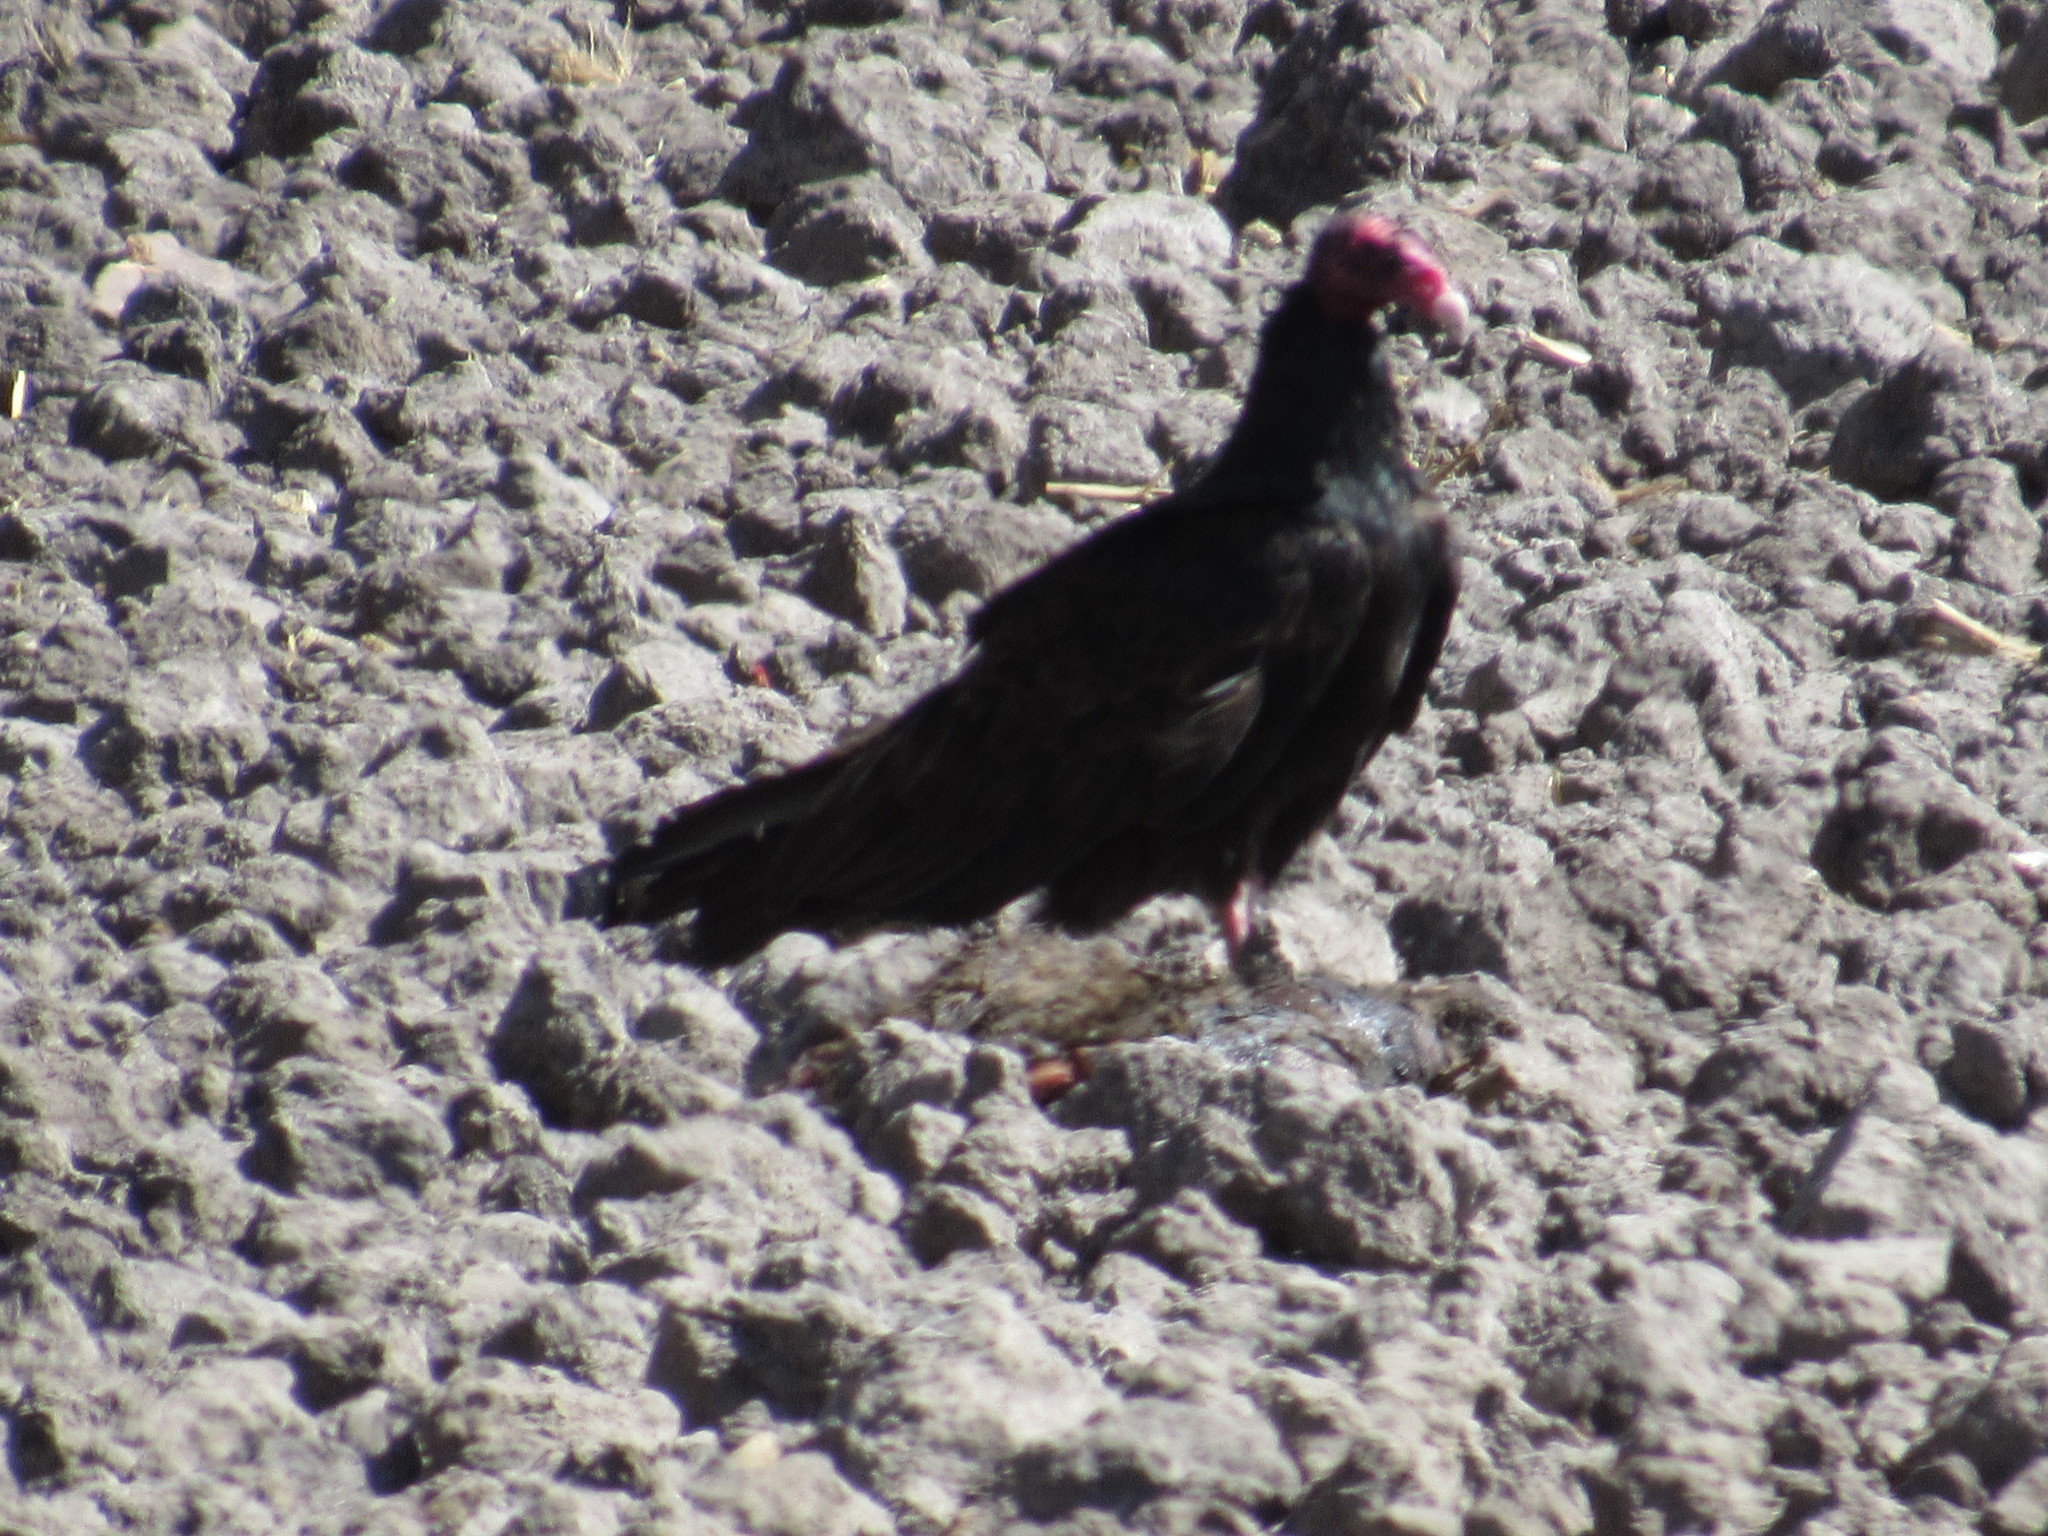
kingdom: Animalia
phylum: Chordata
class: Aves
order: Accipitriformes
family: Cathartidae
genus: Cathartes
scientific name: Cathartes aura
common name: Turkey vulture
